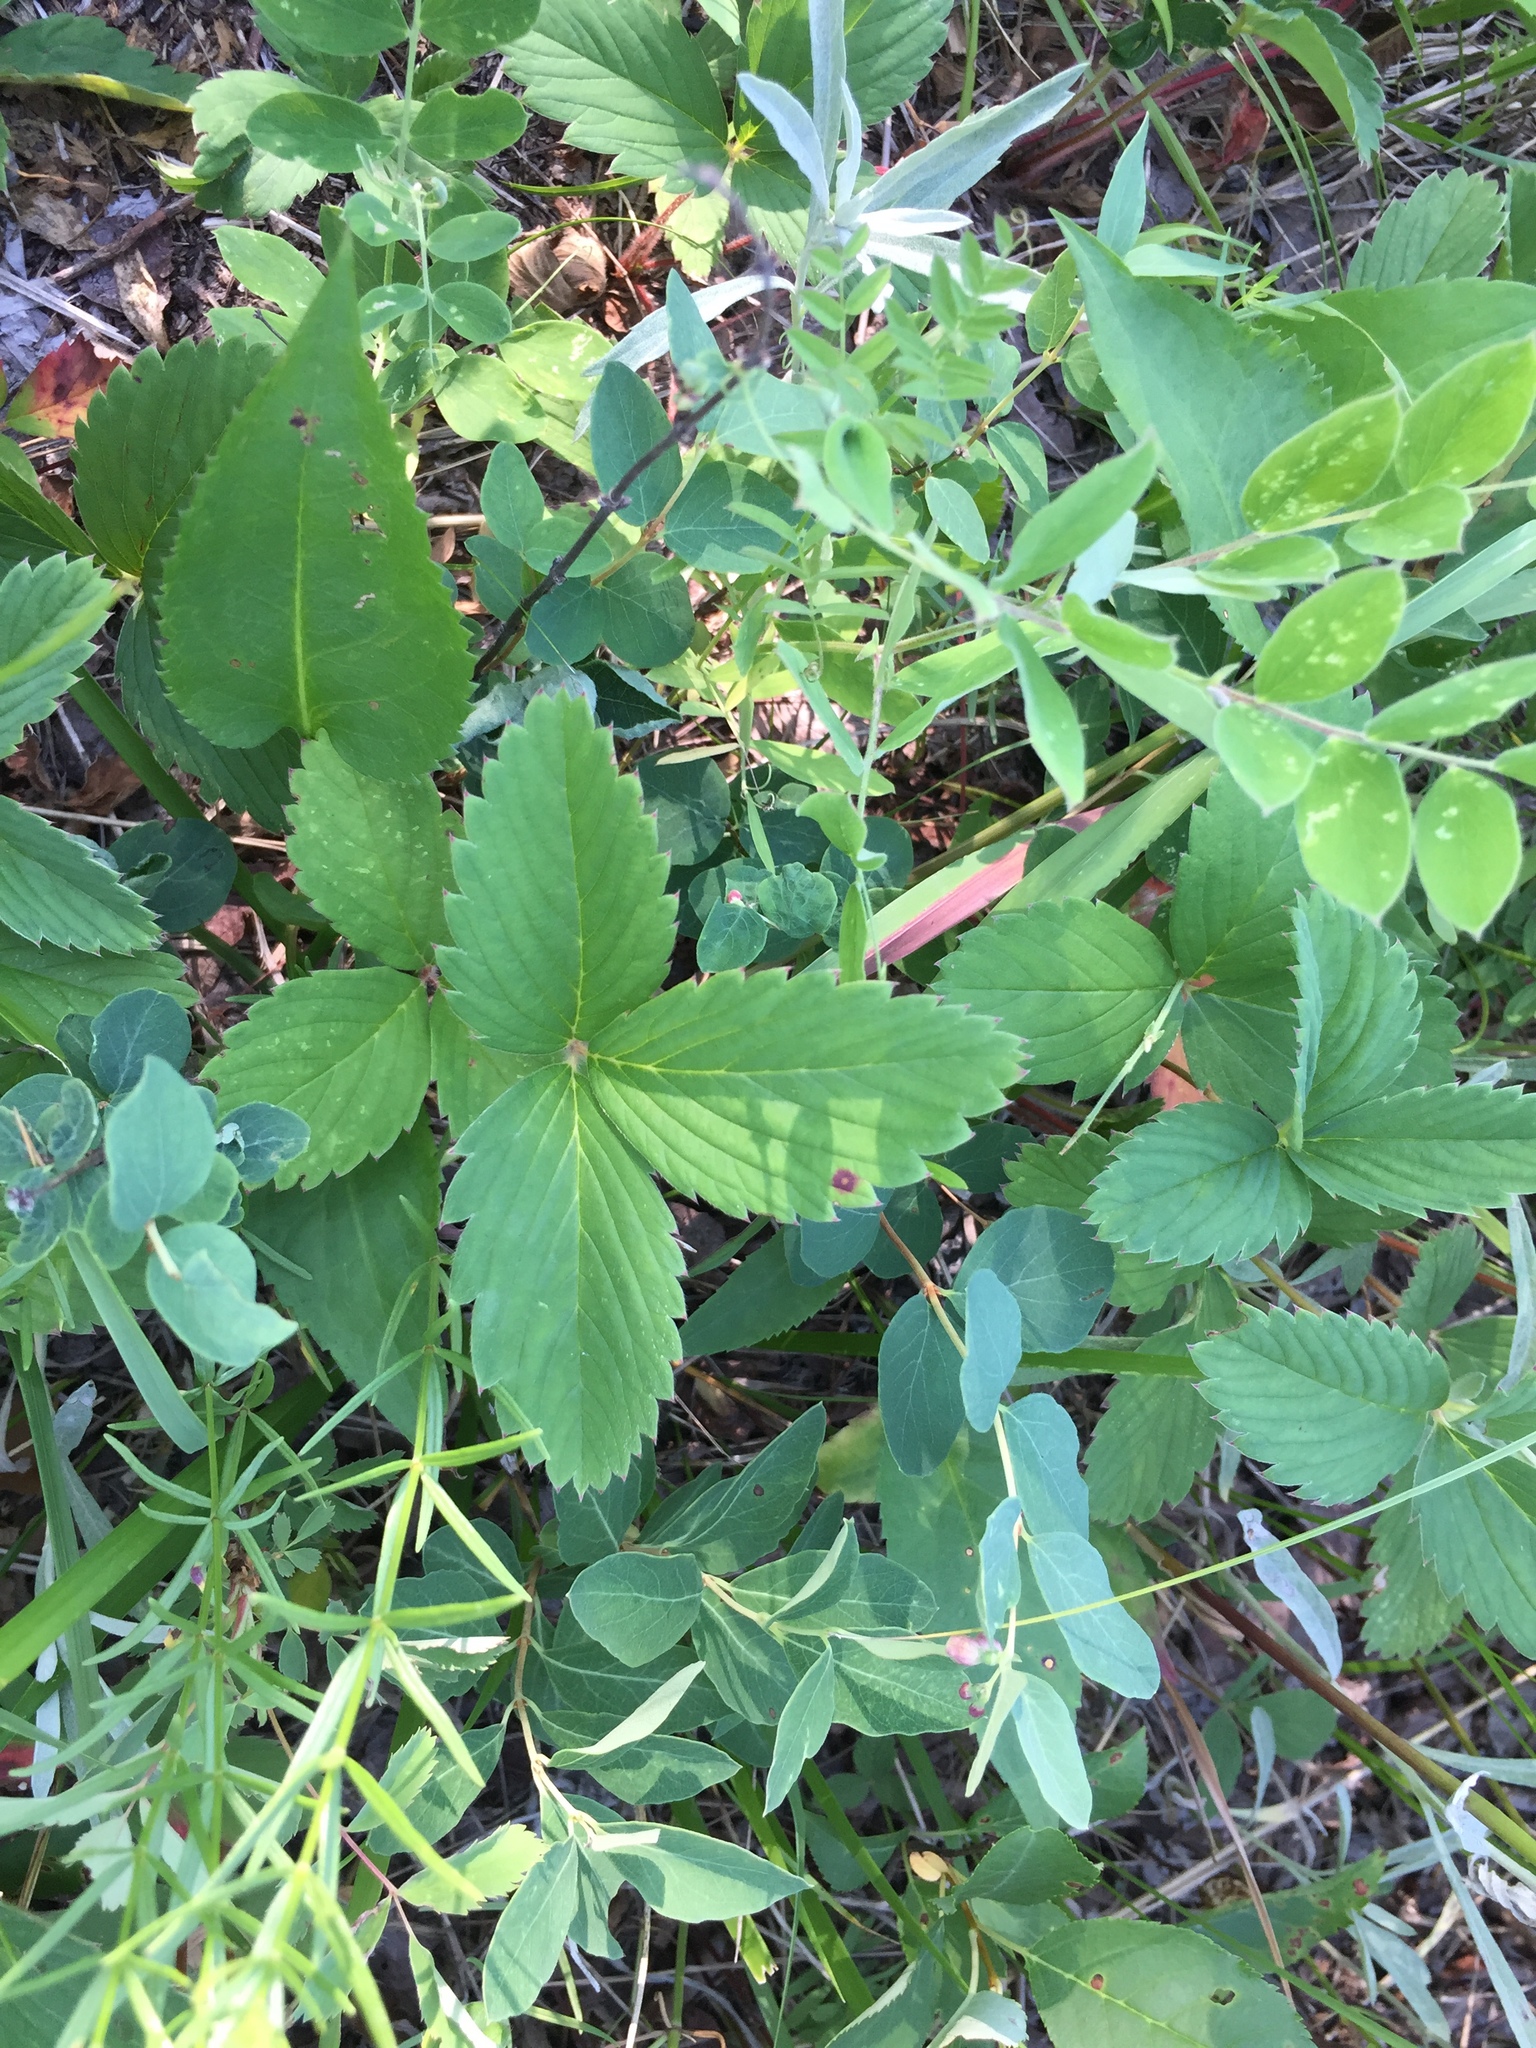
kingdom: Plantae
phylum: Tracheophyta
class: Magnoliopsida
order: Rosales
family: Rosaceae
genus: Fragaria
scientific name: Fragaria virginiana
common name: Thickleaved wild strawberry
